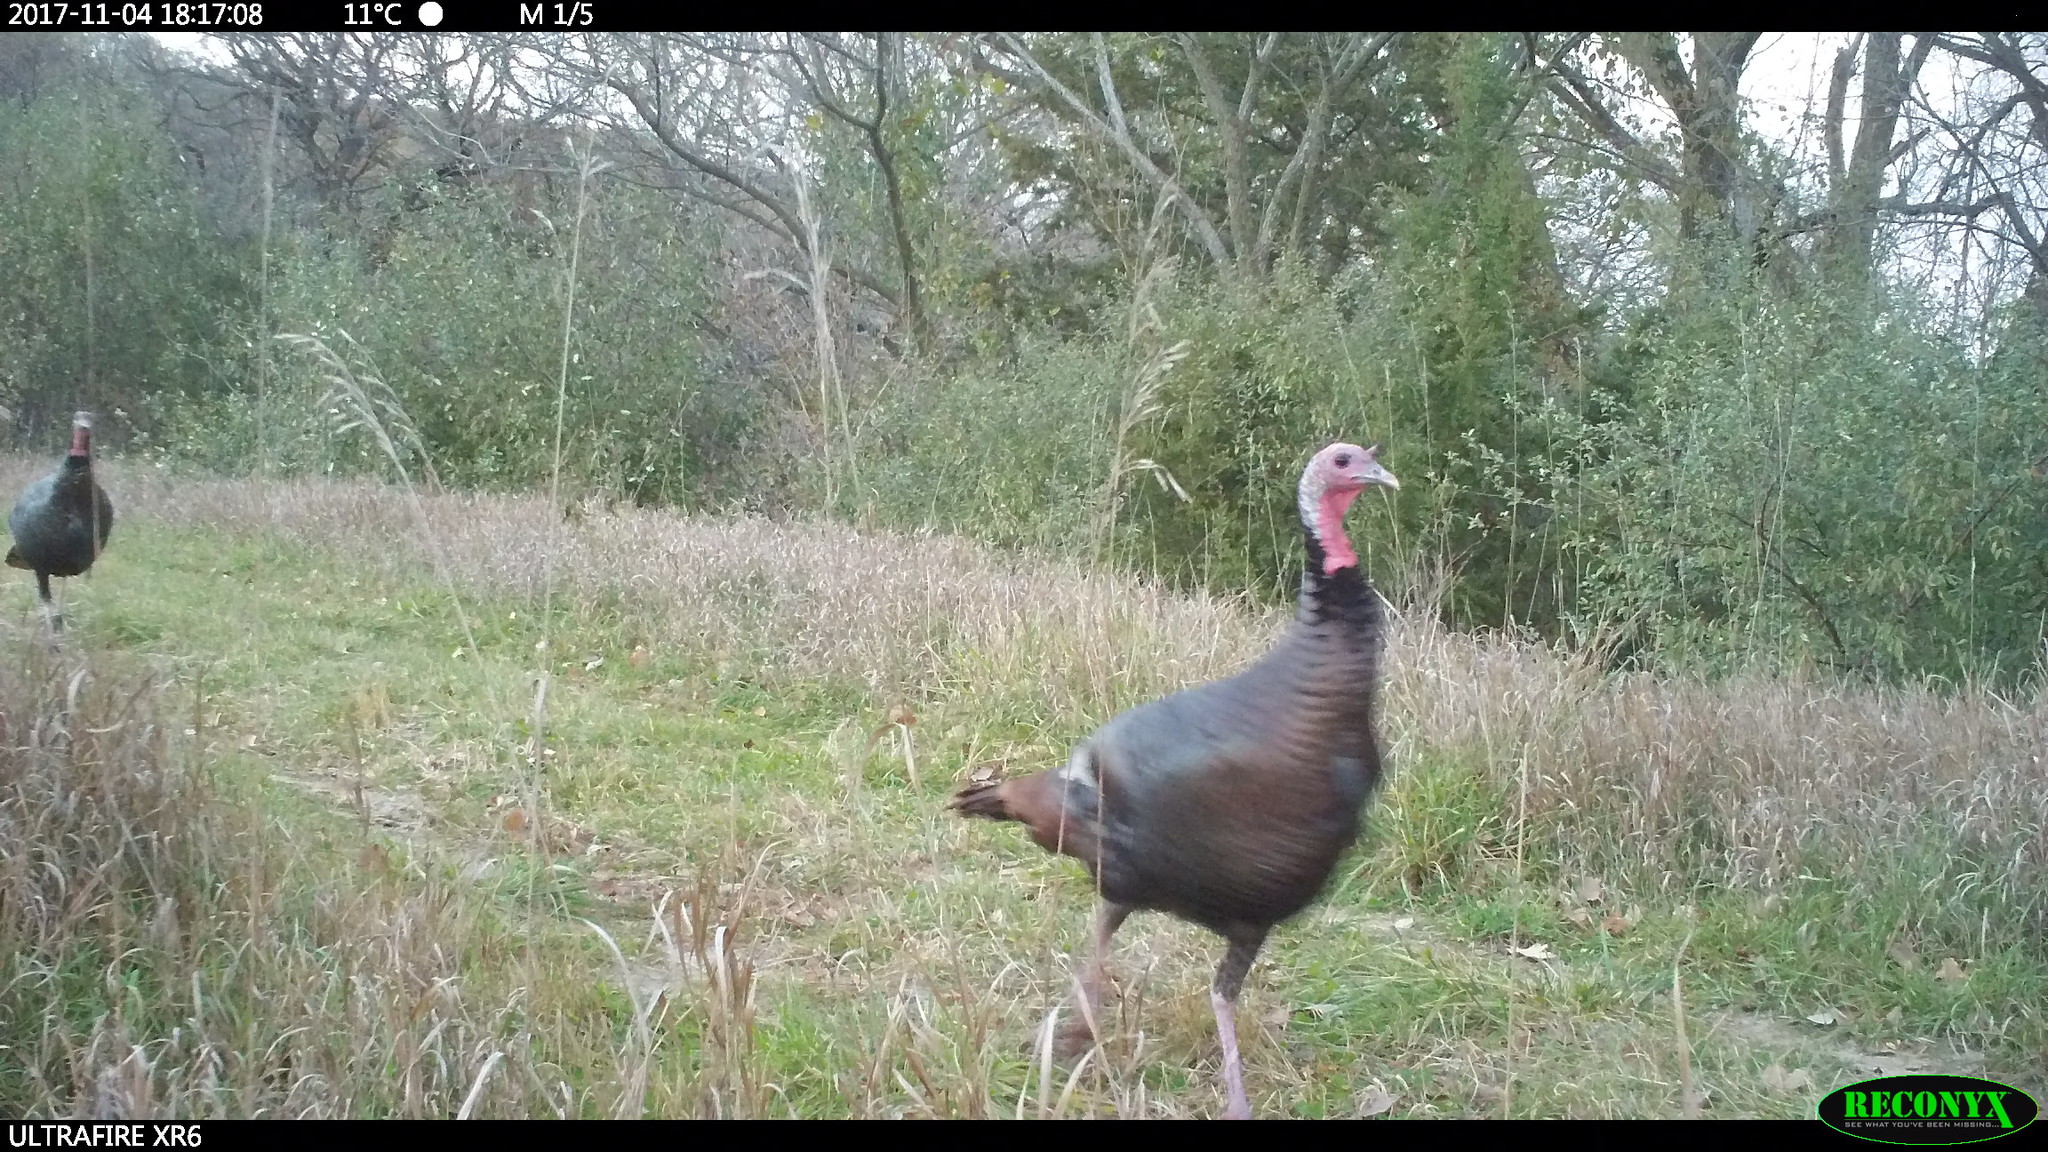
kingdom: Animalia
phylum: Chordata
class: Aves
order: Galliformes
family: Phasianidae
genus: Meleagris
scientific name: Meleagris gallopavo
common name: Wild turkey
